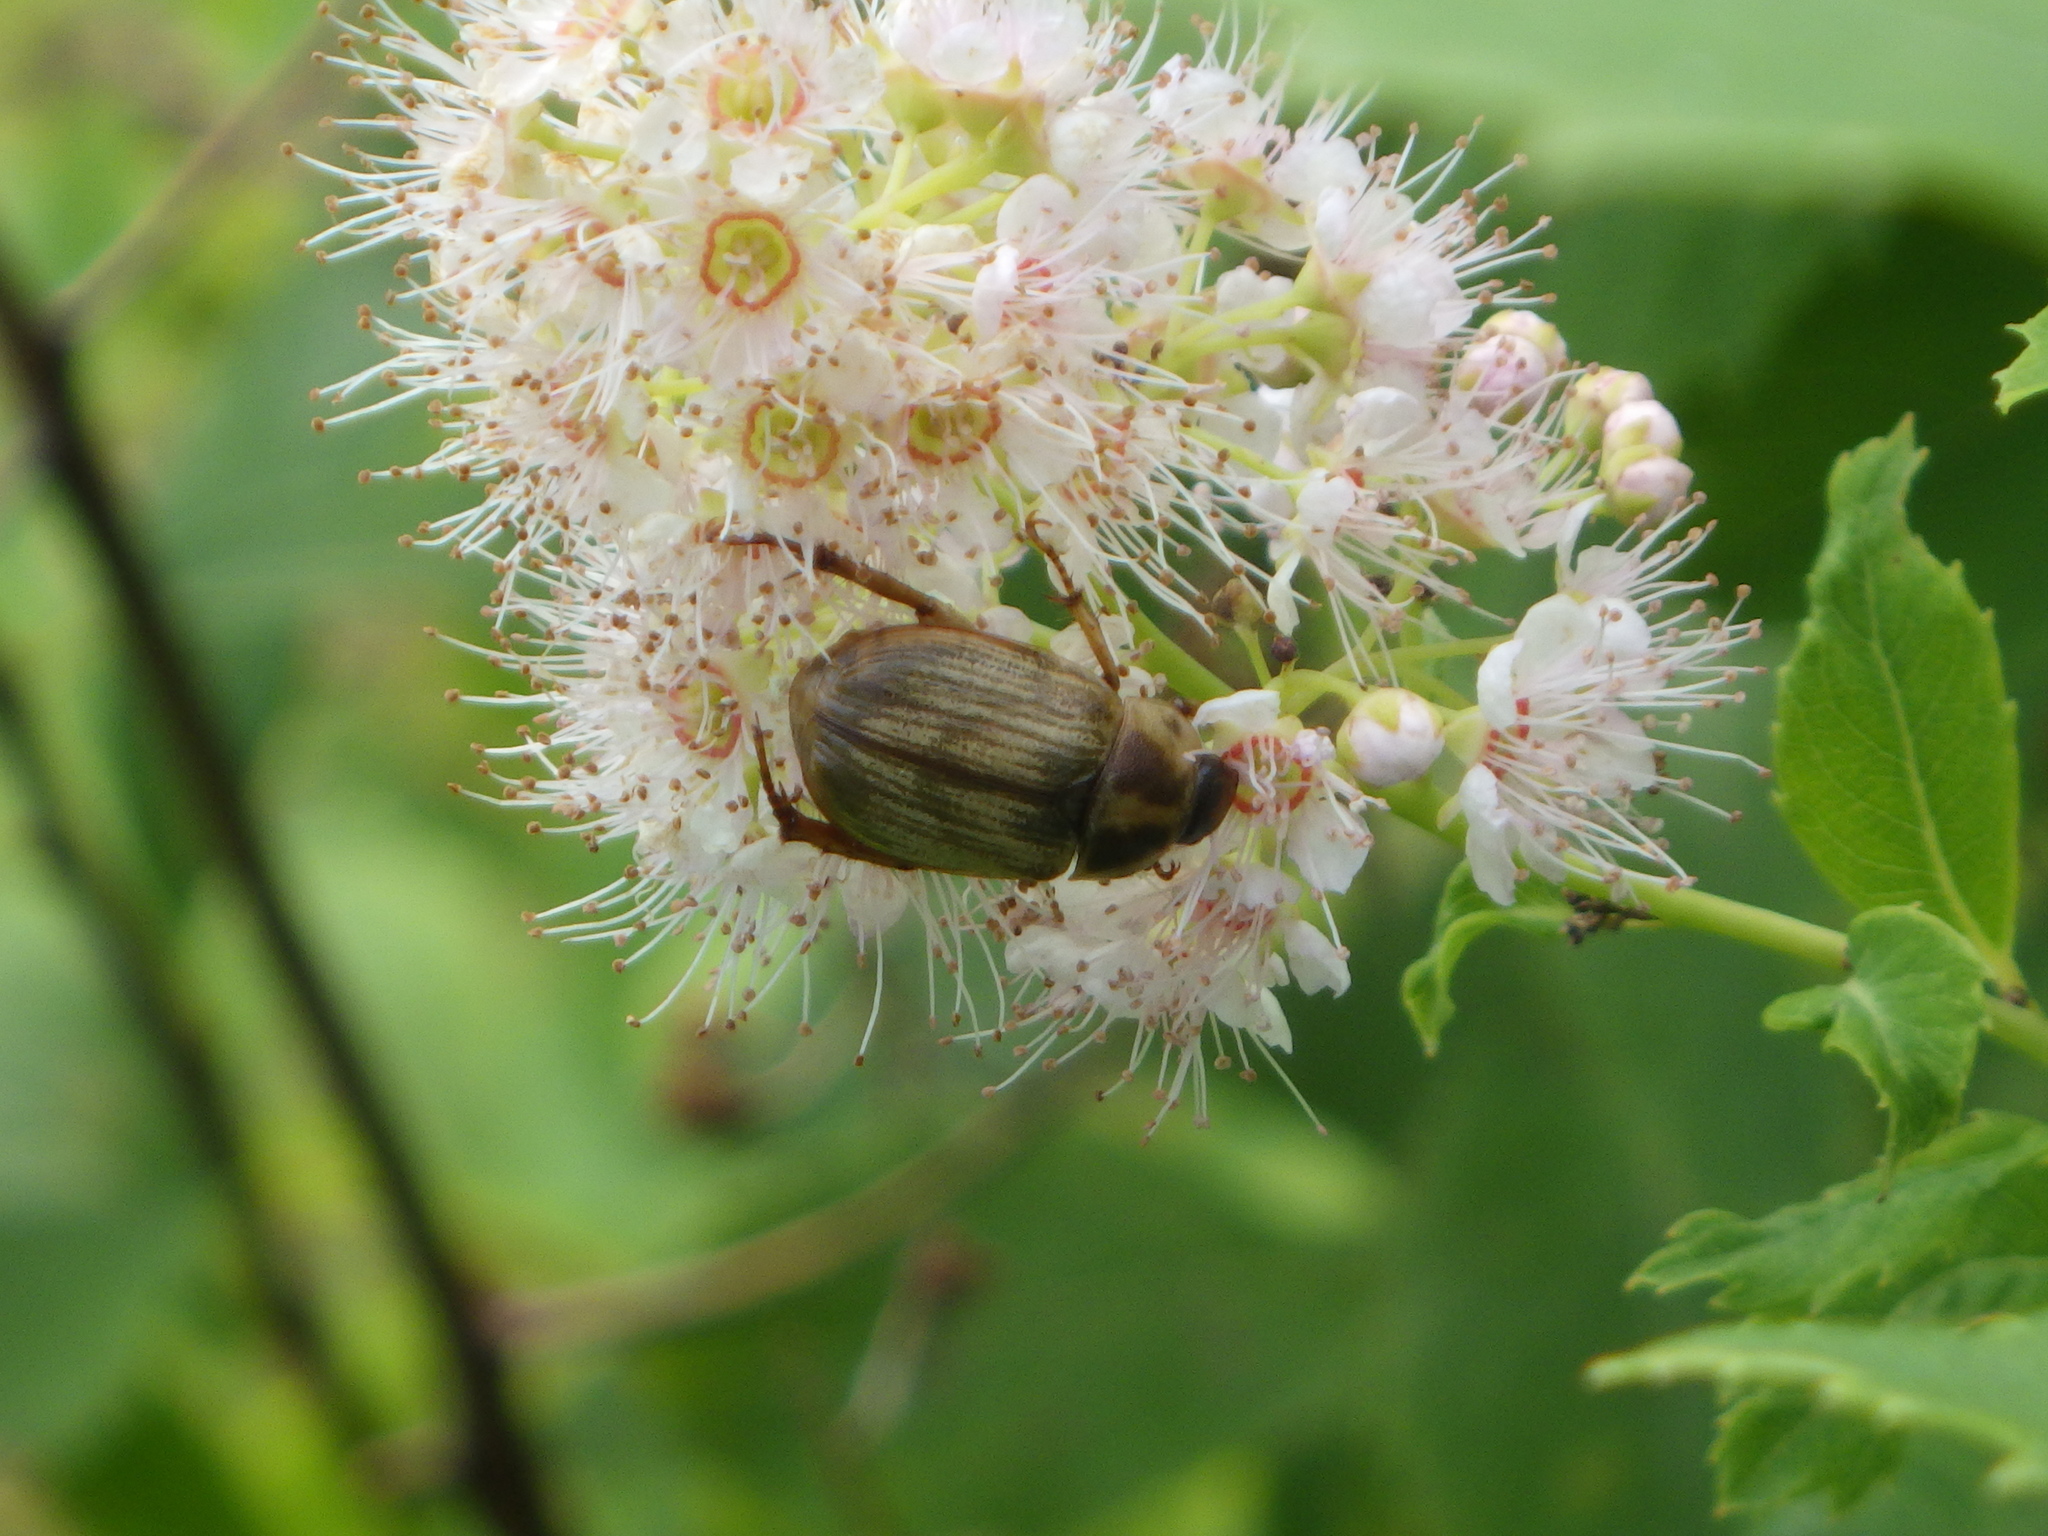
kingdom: Animalia
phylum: Arthropoda
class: Insecta
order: Coleoptera
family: Scarabaeidae
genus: Exomala
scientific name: Exomala orientalis
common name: Oriental beetle
